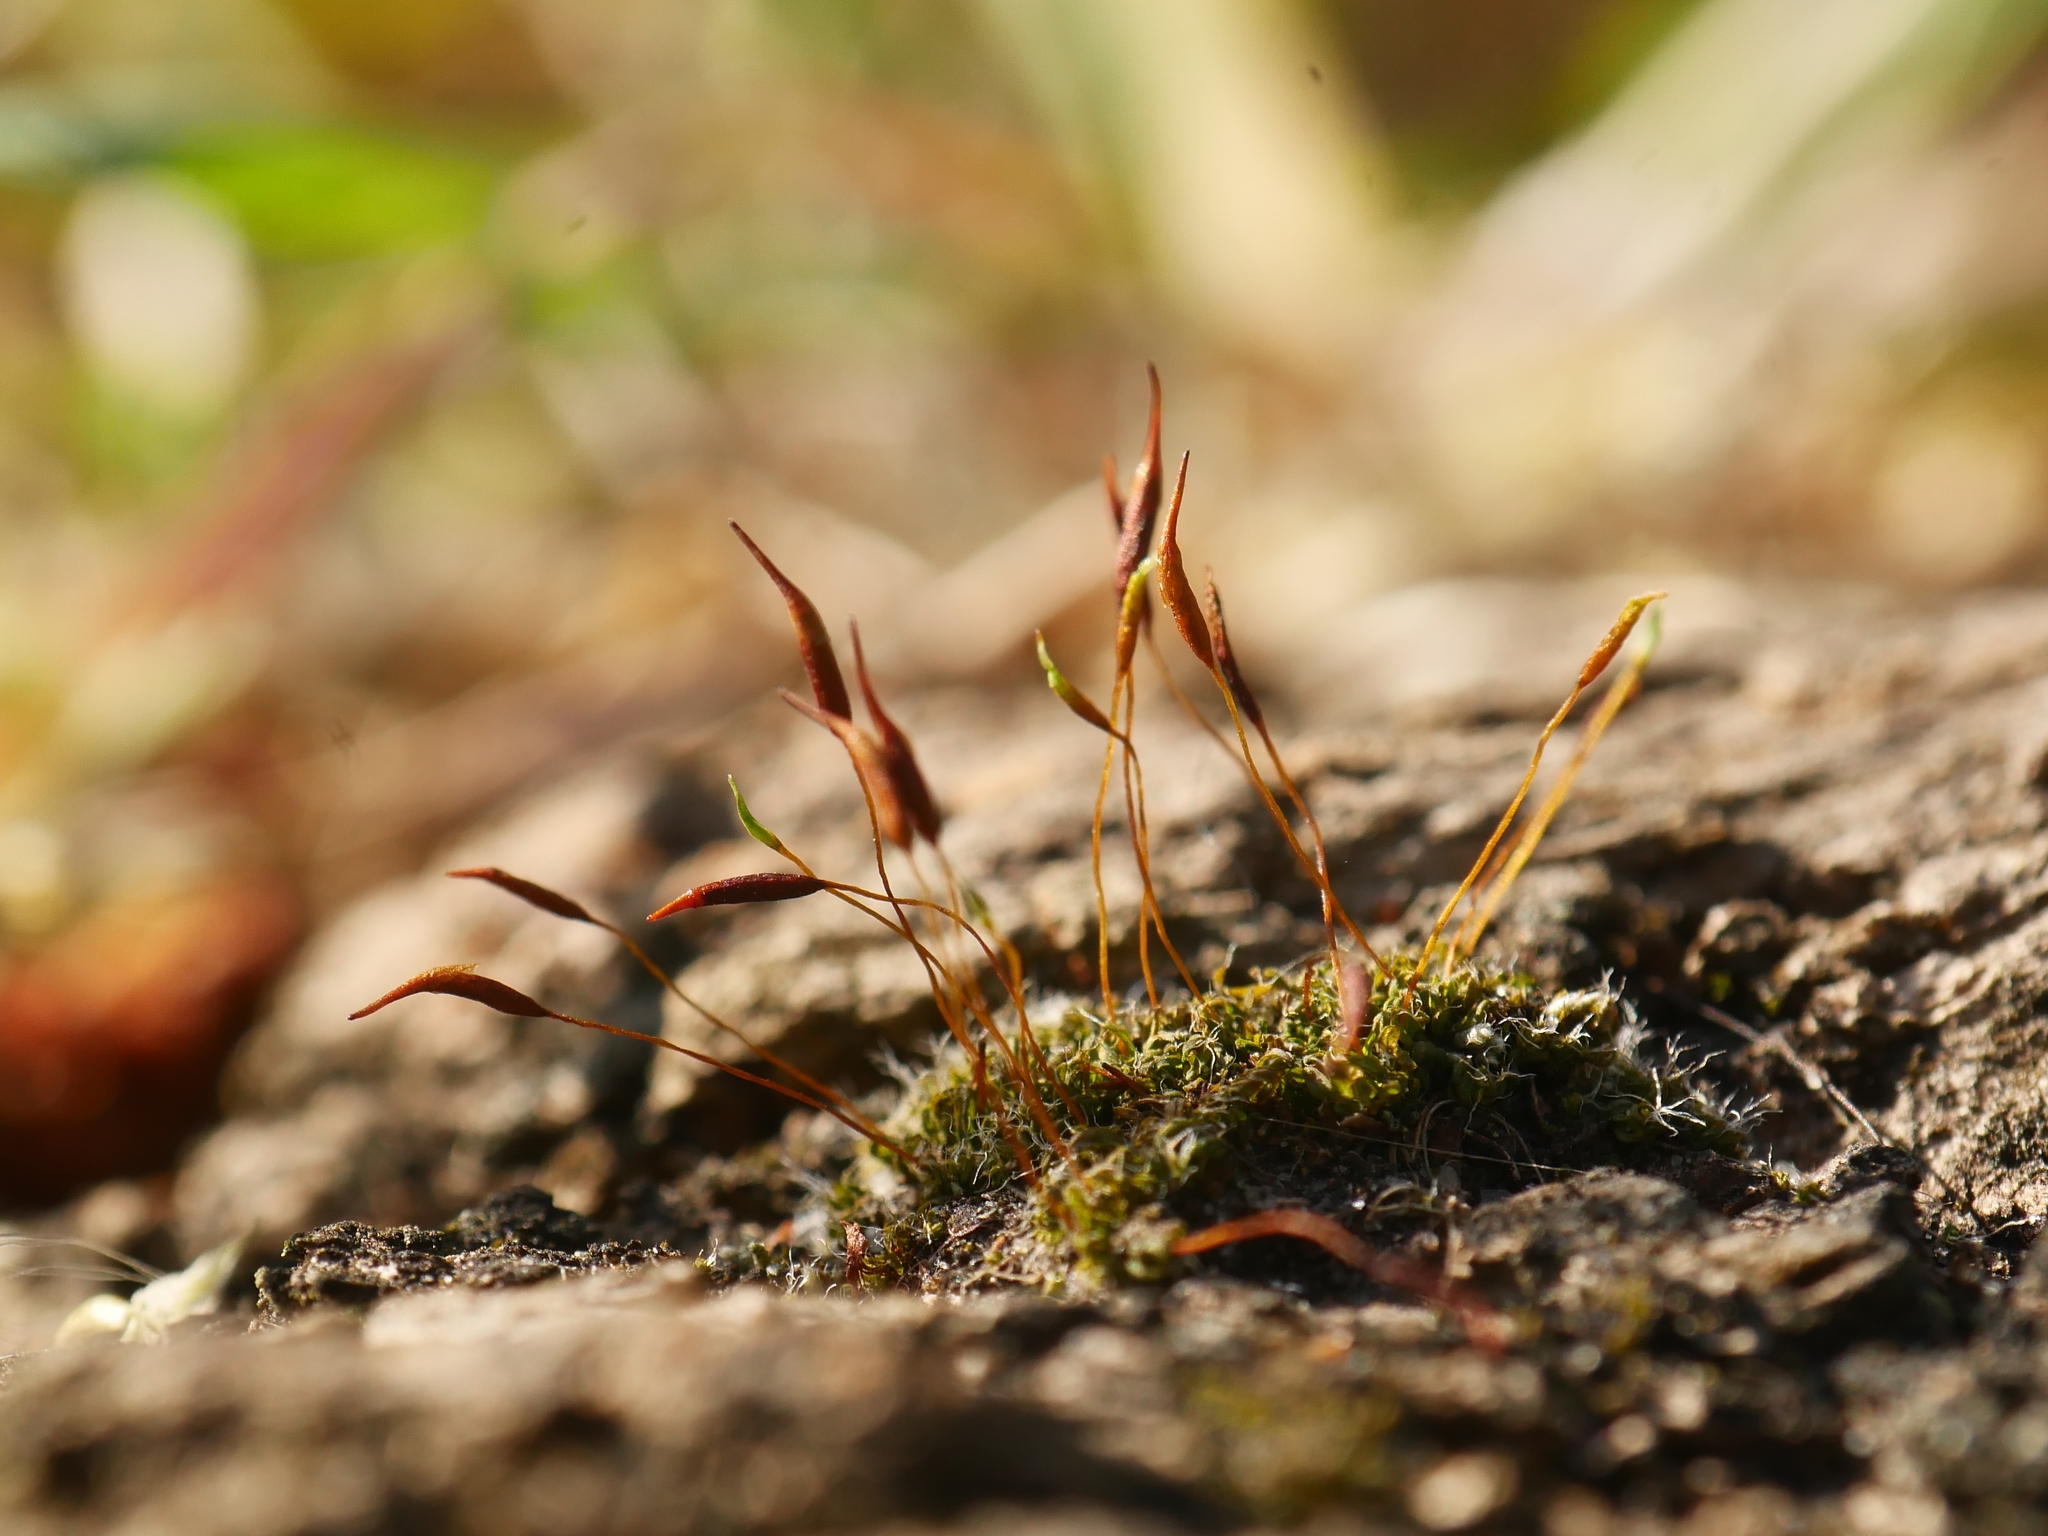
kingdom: Plantae
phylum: Bryophyta
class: Bryopsida
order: Pottiales
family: Pottiaceae
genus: Tortula
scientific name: Tortula muralis
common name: Wall screw-moss
